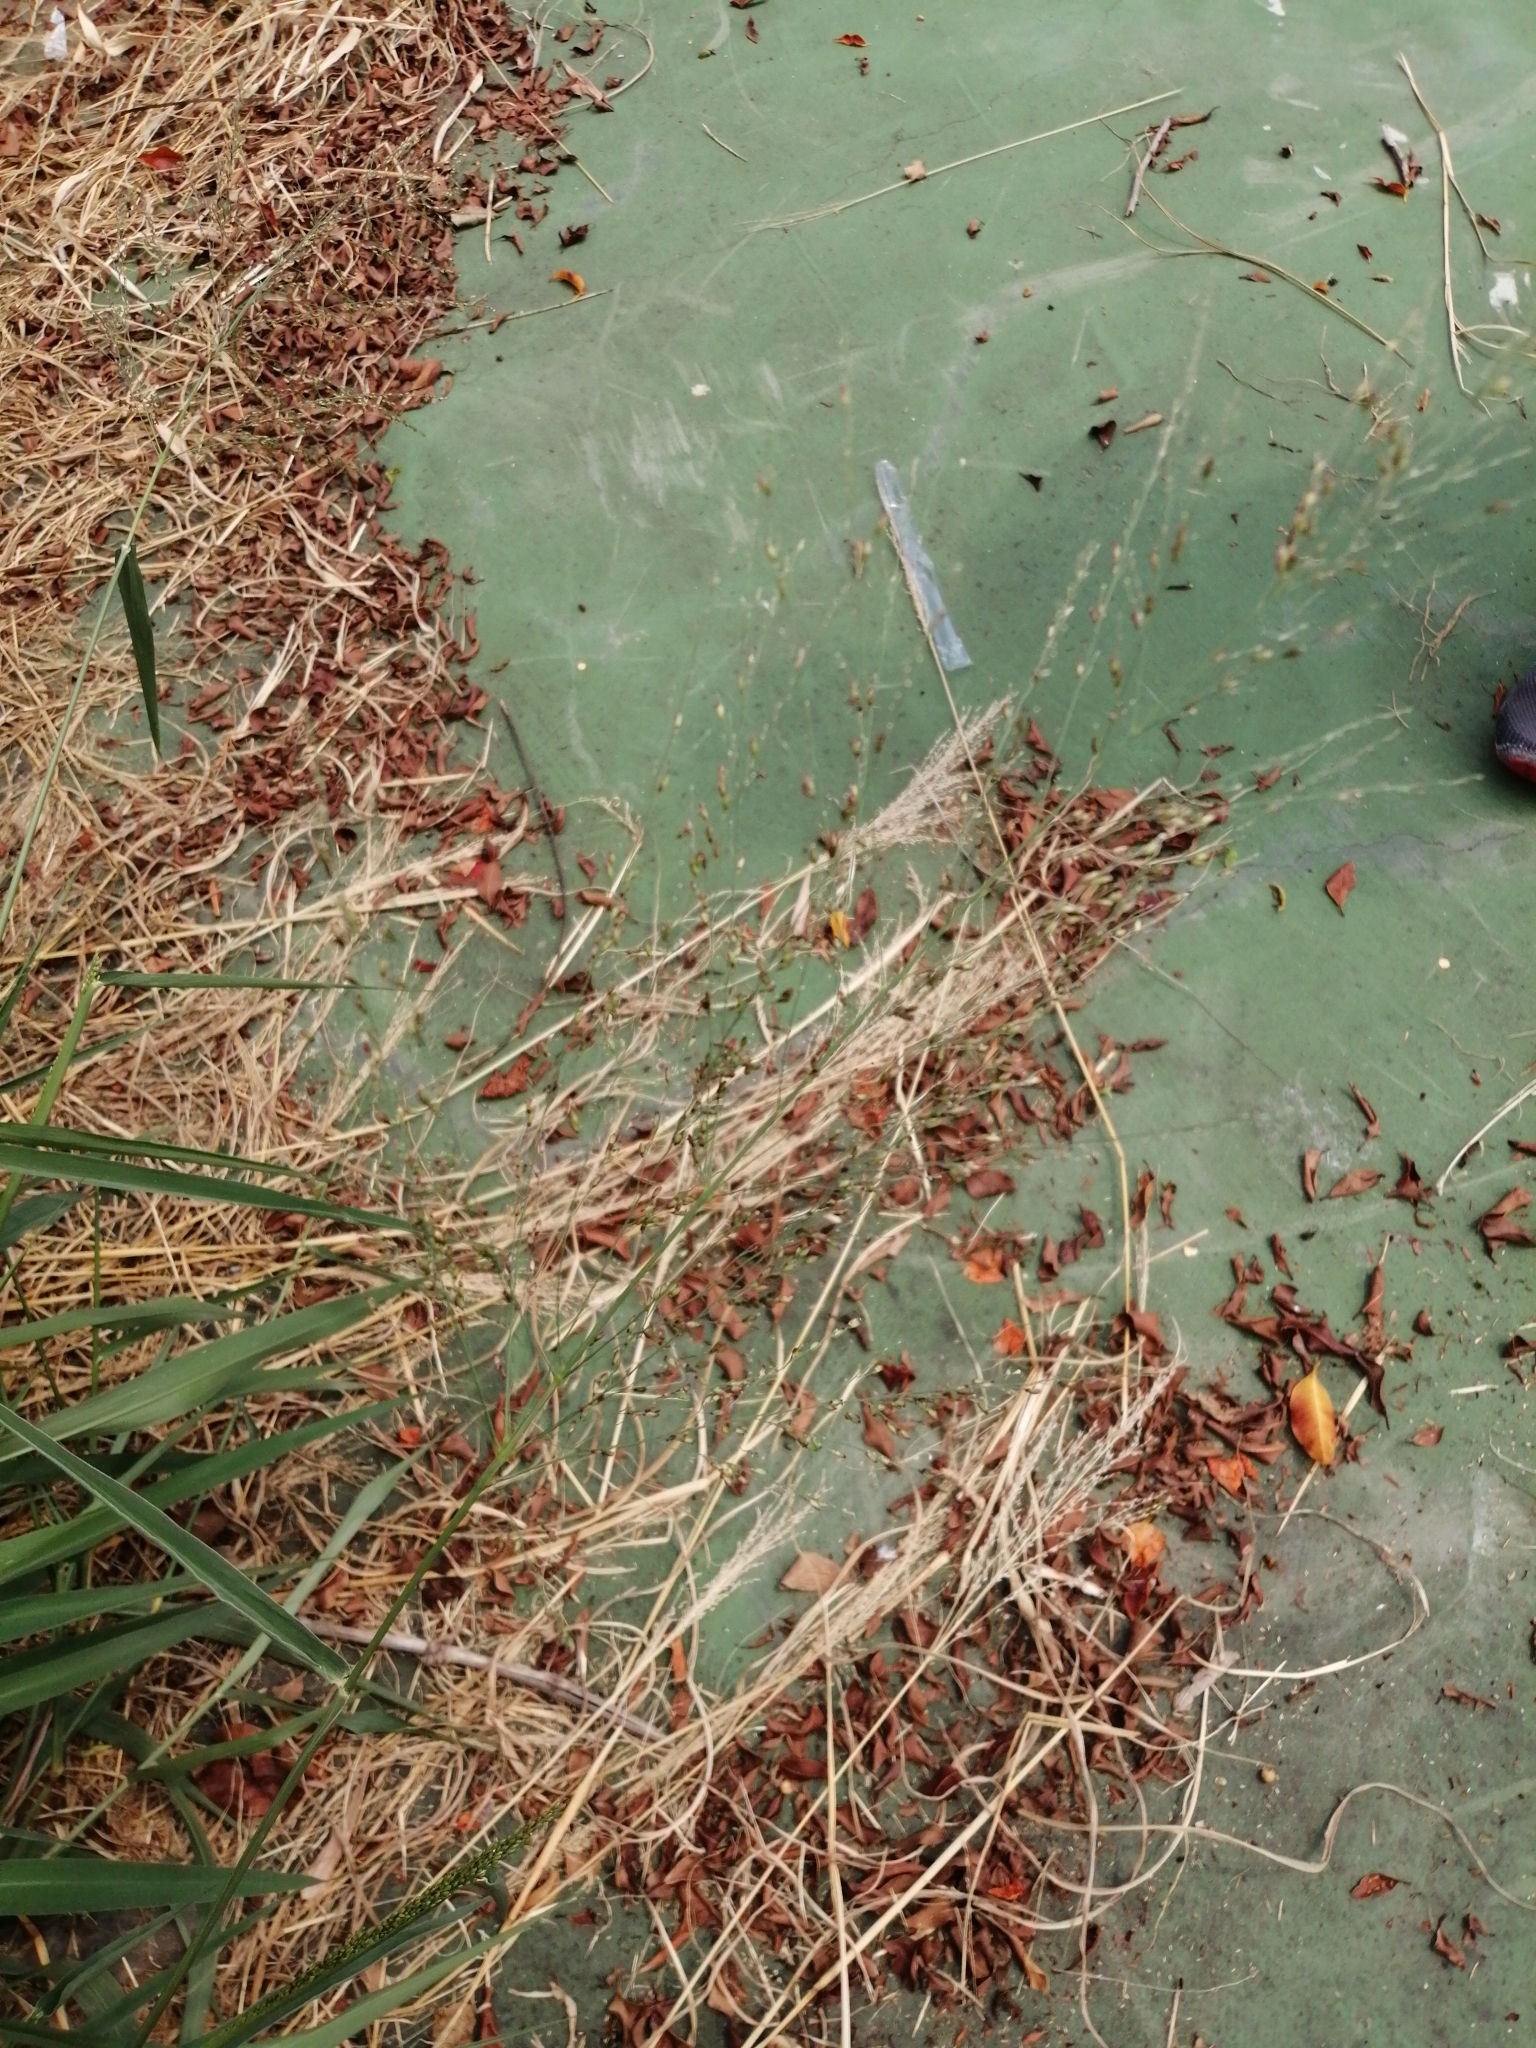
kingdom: Plantae
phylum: Tracheophyta
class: Liliopsida
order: Poales
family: Poaceae
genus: Megathyrsus
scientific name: Megathyrsus maximus
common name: Guineagrass
